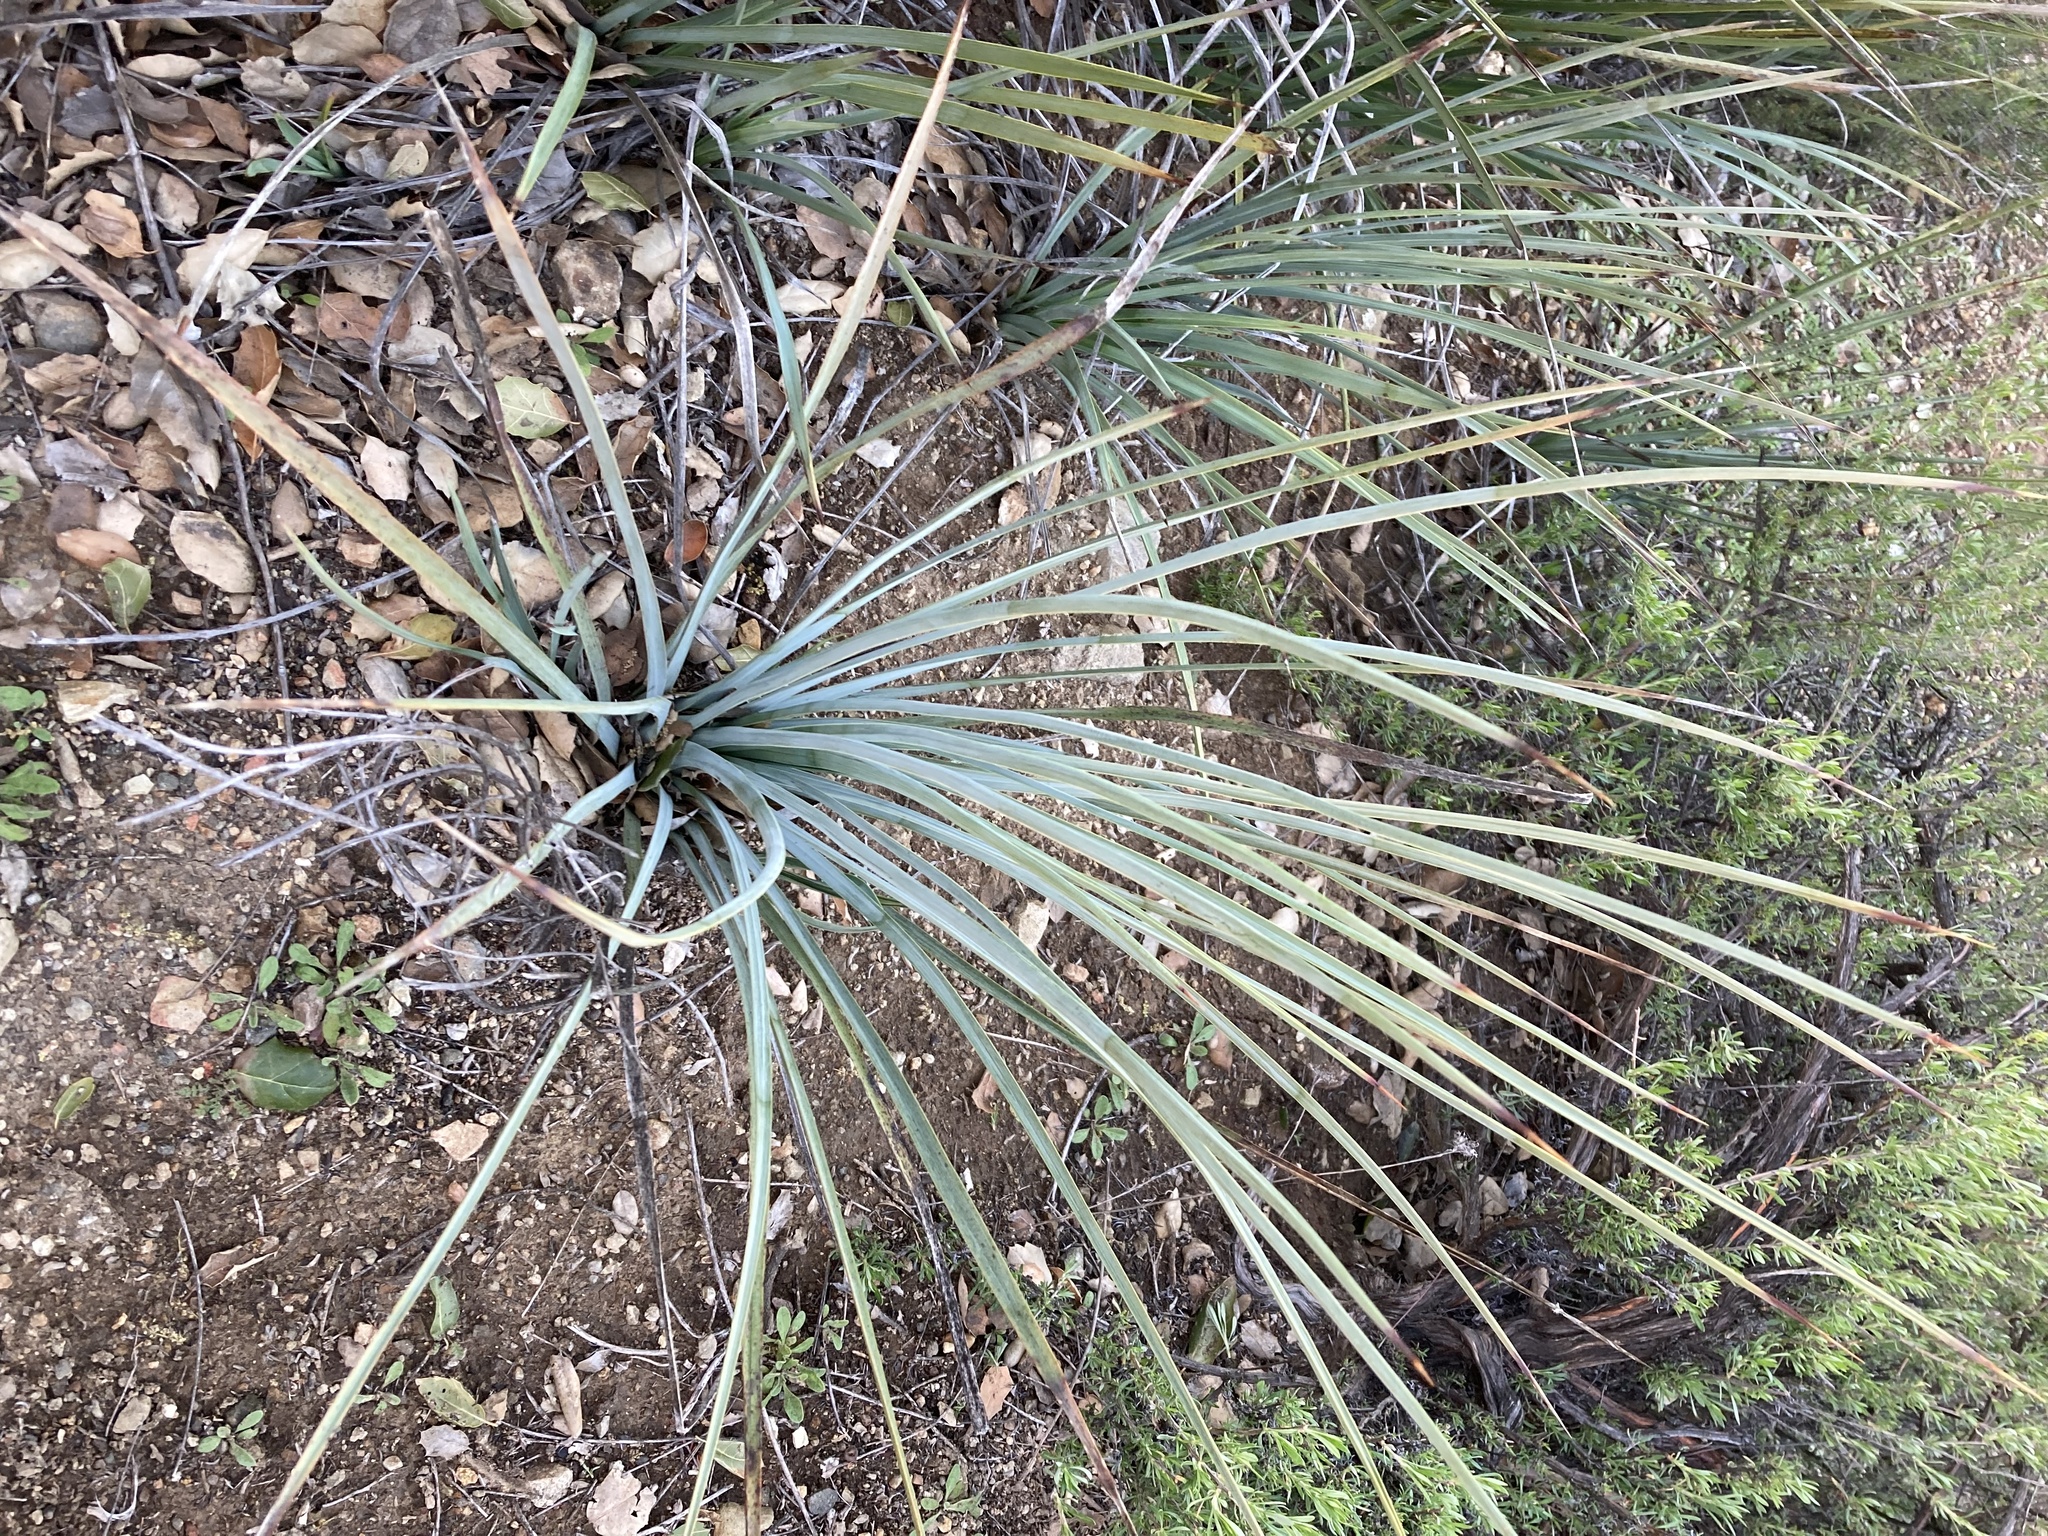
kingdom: Plantae
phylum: Tracheophyta
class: Liliopsida
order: Asparagales
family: Asparagaceae
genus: Hesperoyucca
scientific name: Hesperoyucca whipplei
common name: Our lord's-candle
